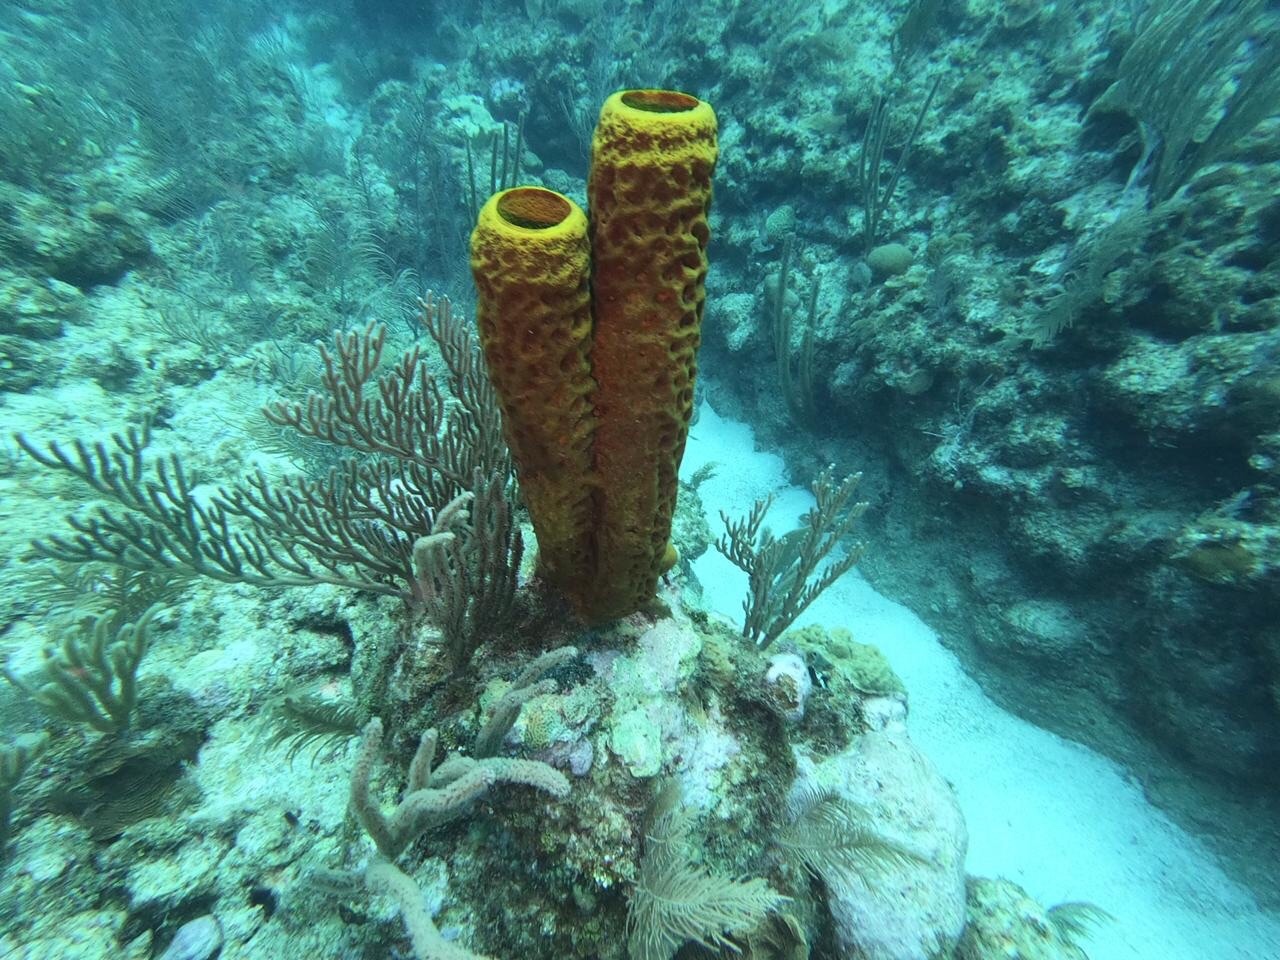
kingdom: Animalia
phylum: Porifera
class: Demospongiae
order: Verongiida
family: Aplysinidae
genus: Aplysina
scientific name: Aplysina fistularis
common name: Candle sponge
